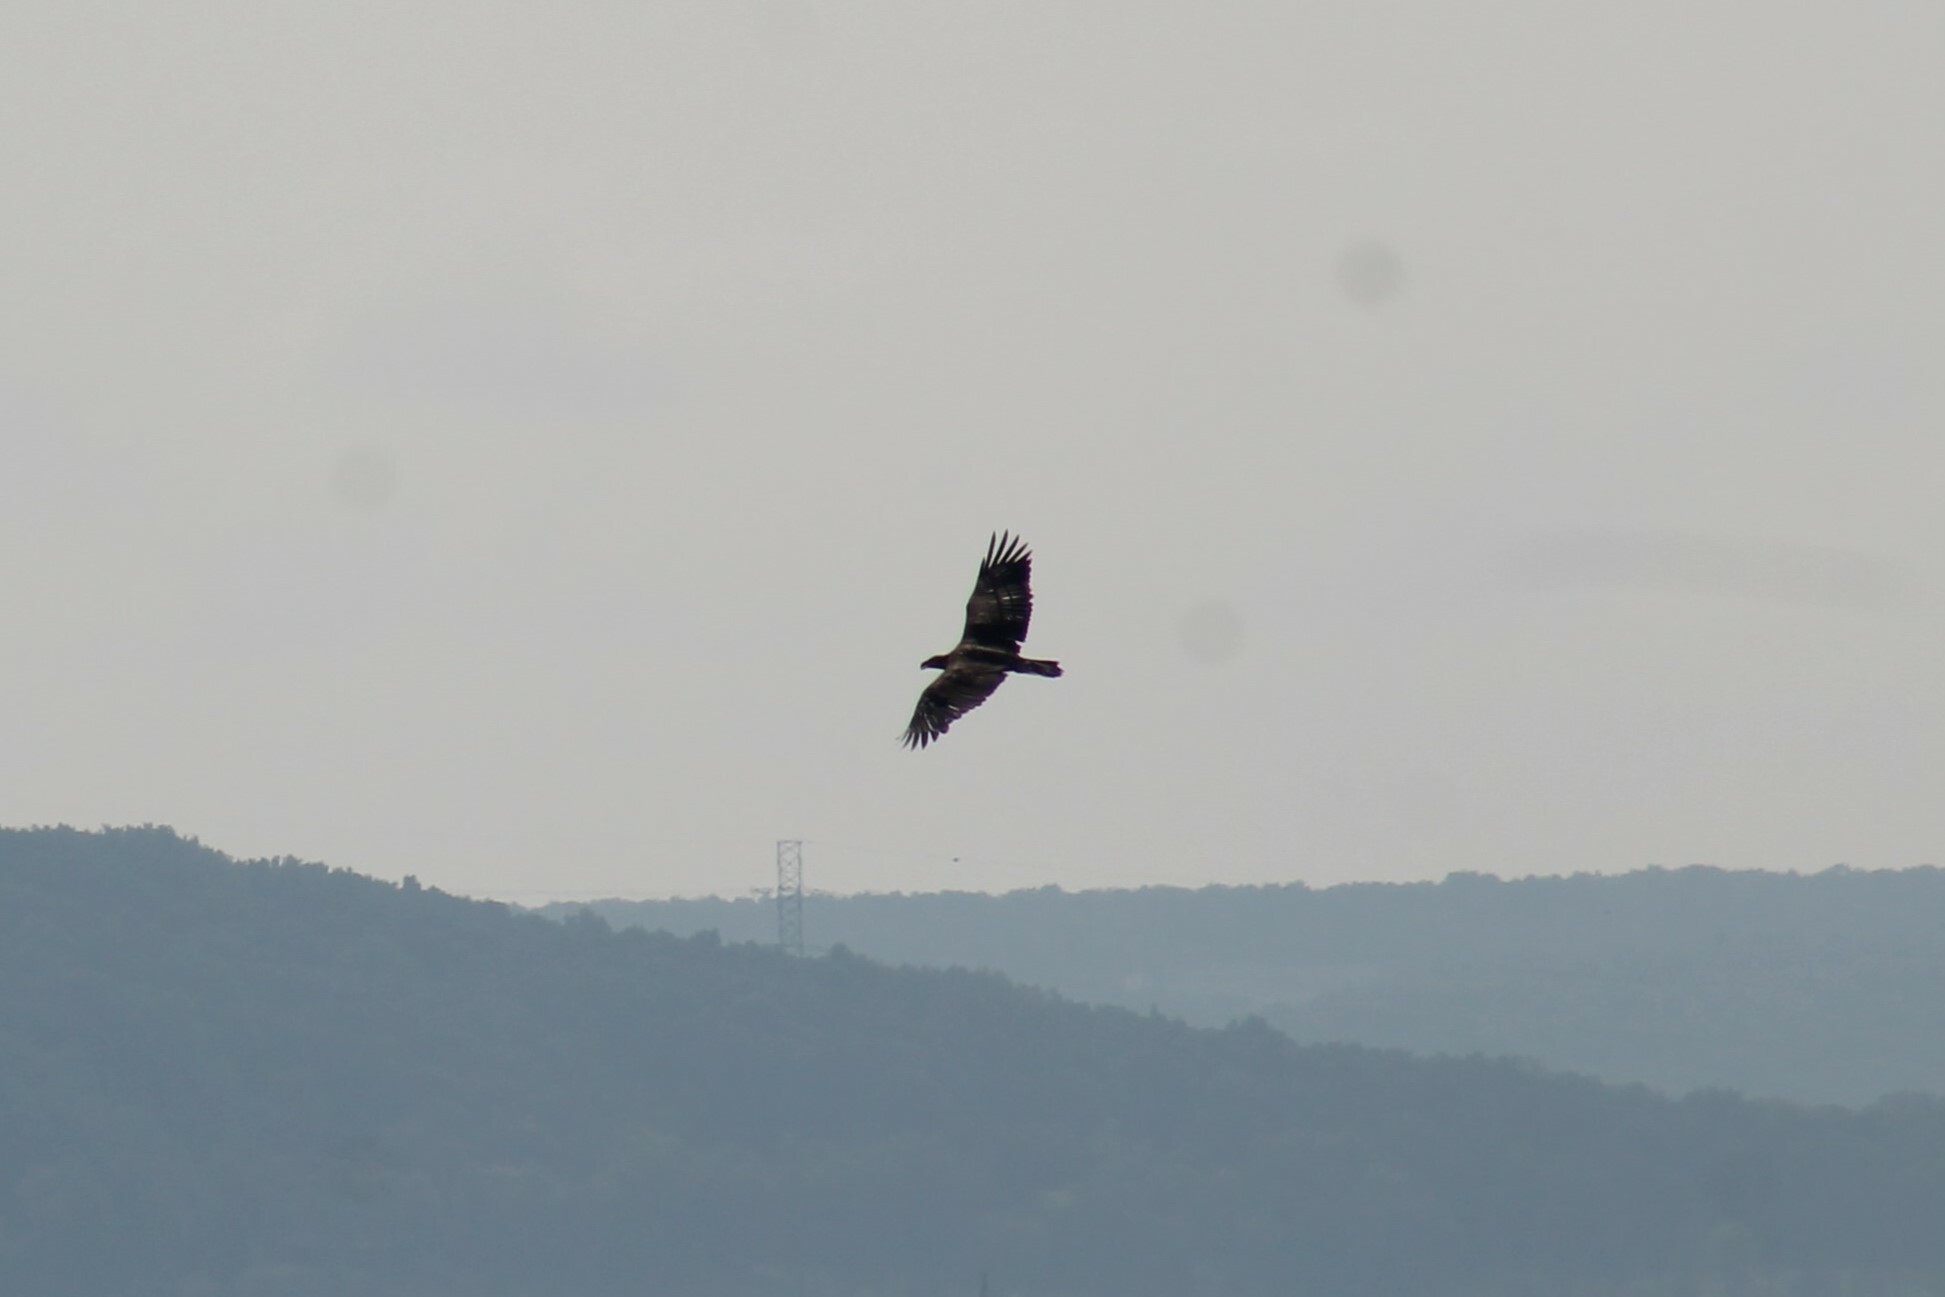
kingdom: Animalia
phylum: Chordata
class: Aves
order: Accipitriformes
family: Accipitridae
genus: Haliaeetus
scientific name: Haliaeetus leucocephalus
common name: Bald eagle
